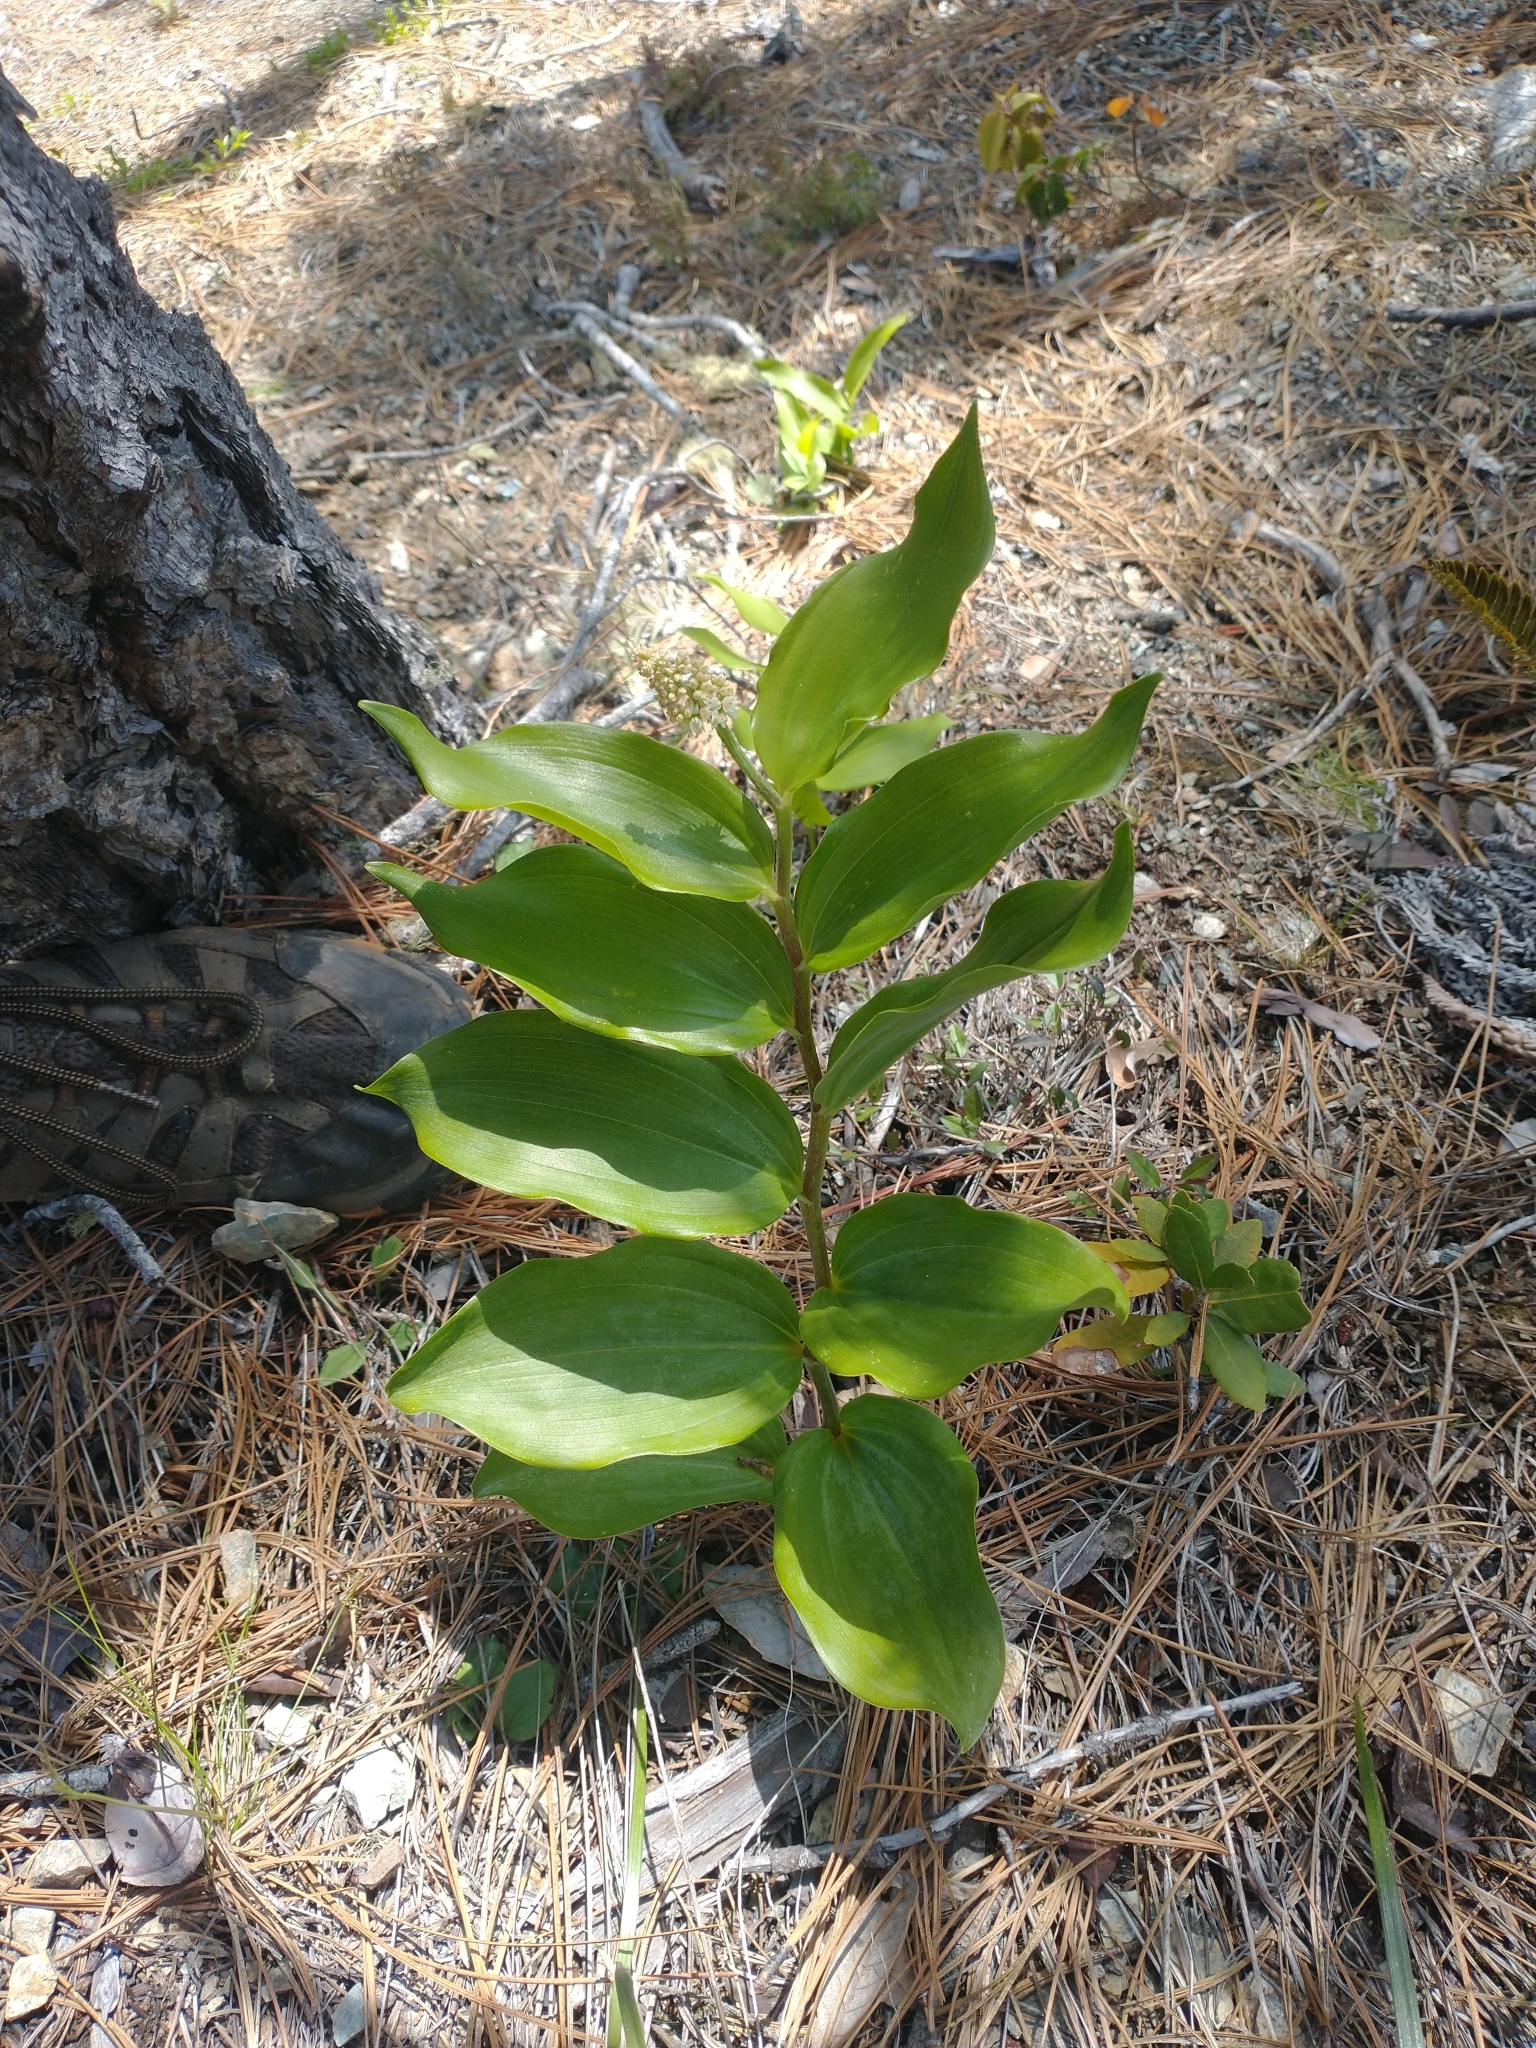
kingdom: Plantae
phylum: Tracheophyta
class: Liliopsida
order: Asparagales
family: Asparagaceae
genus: Maianthemum
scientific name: Maianthemum racemosum
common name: False spikenard
